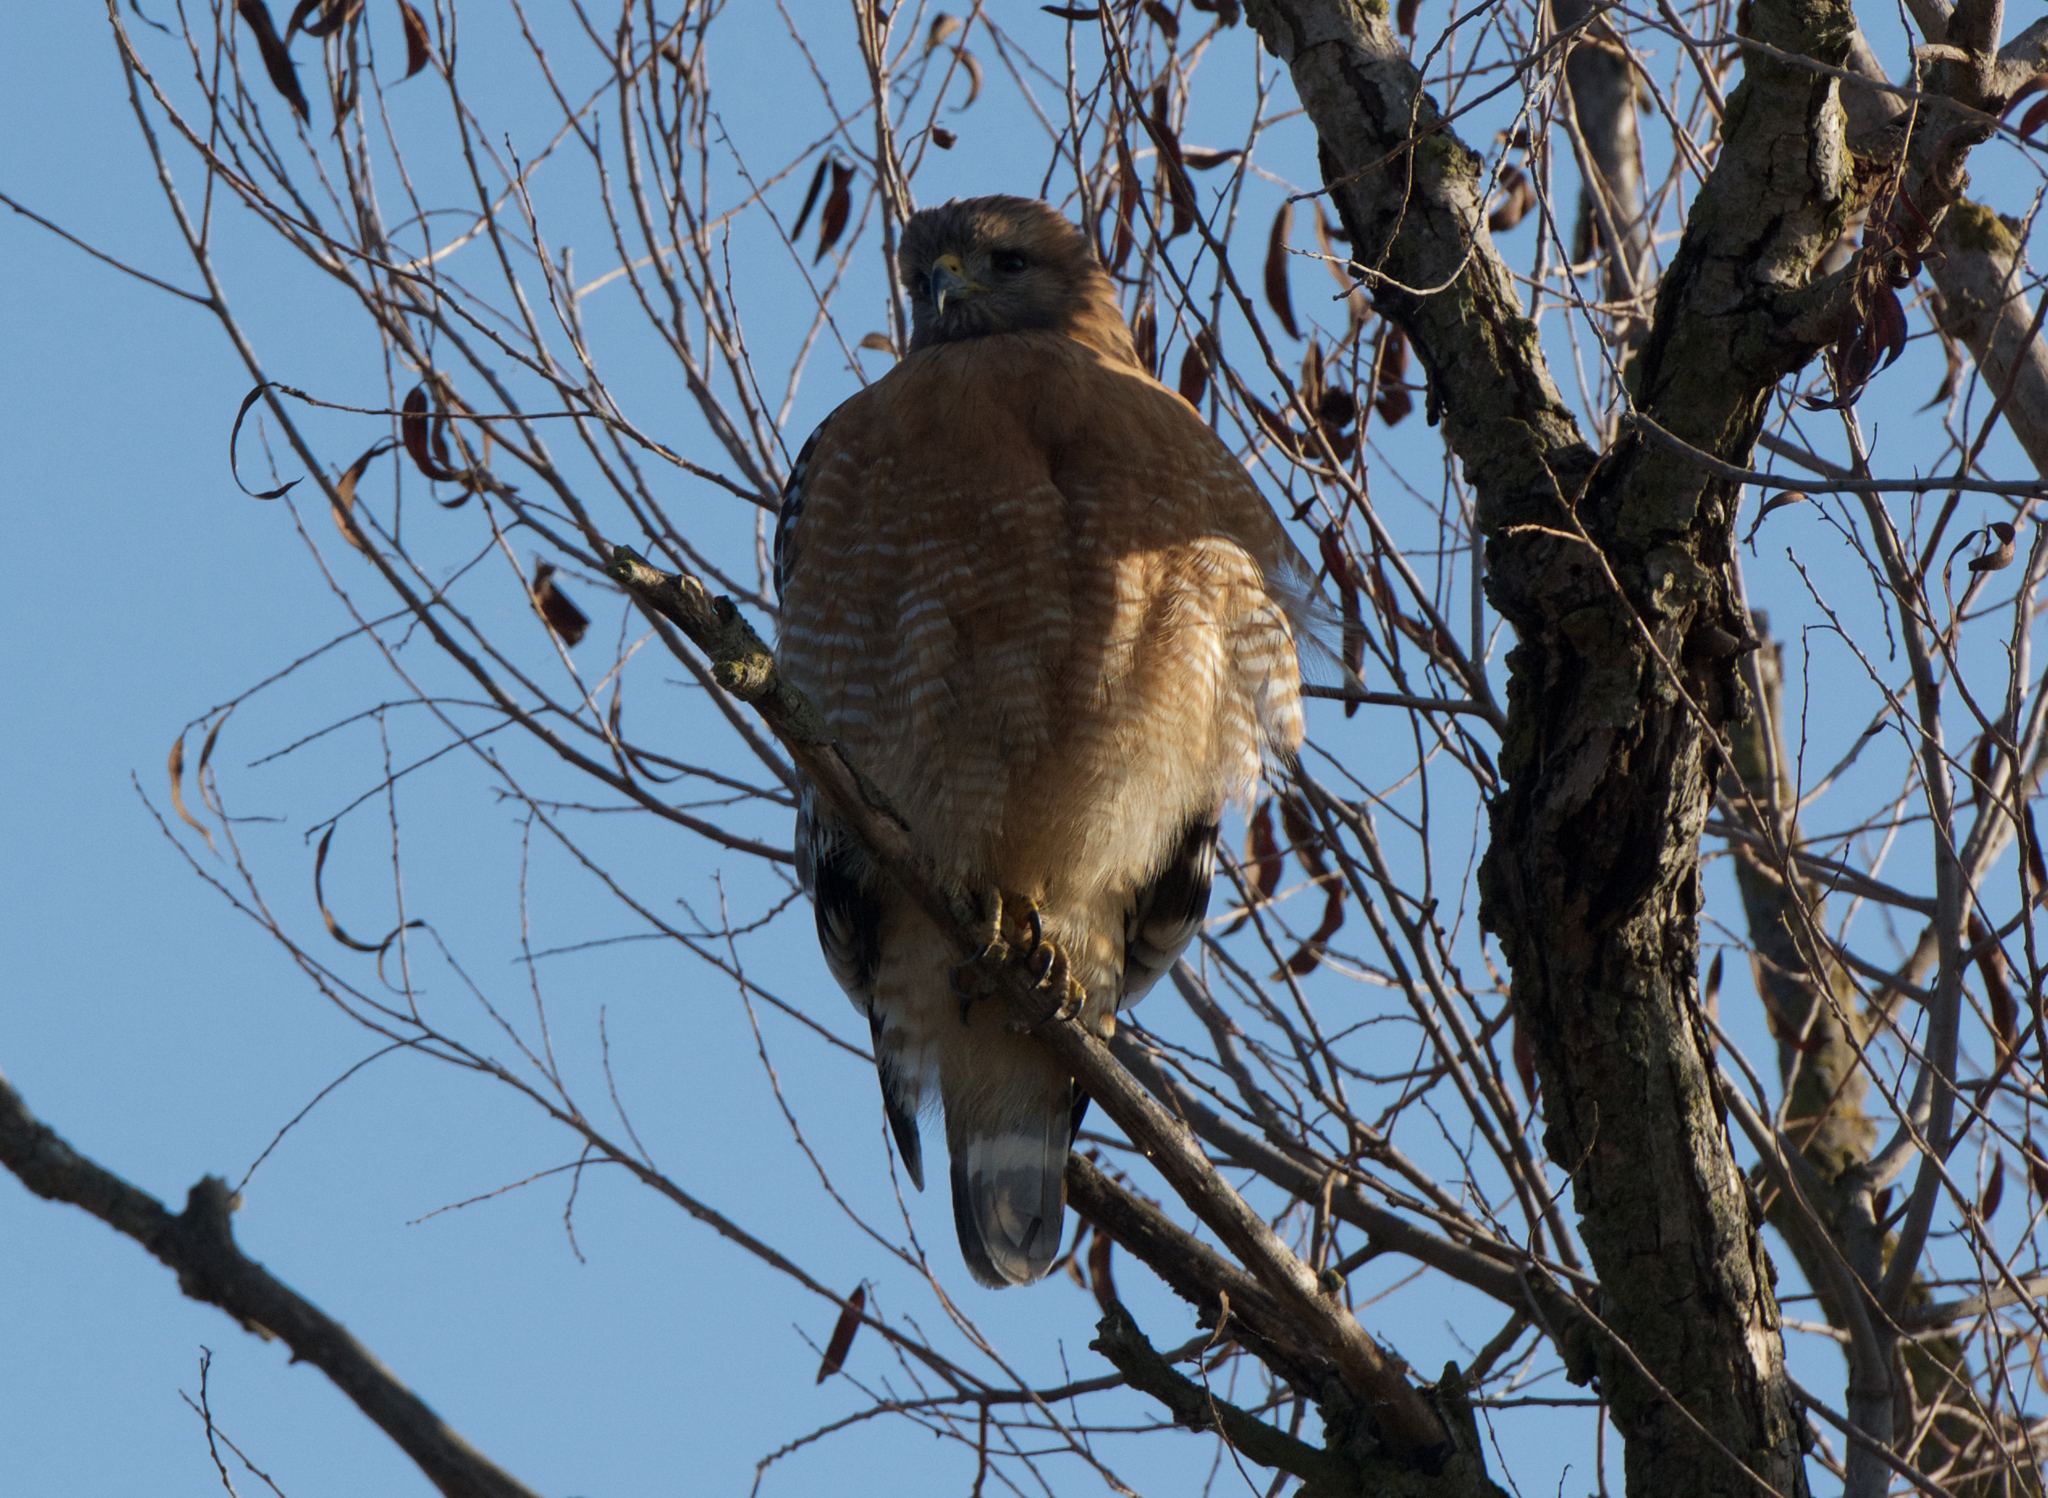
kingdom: Animalia
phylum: Chordata
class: Aves
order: Accipitriformes
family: Accipitridae
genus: Buteo
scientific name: Buteo lineatus
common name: Red-shouldered hawk
